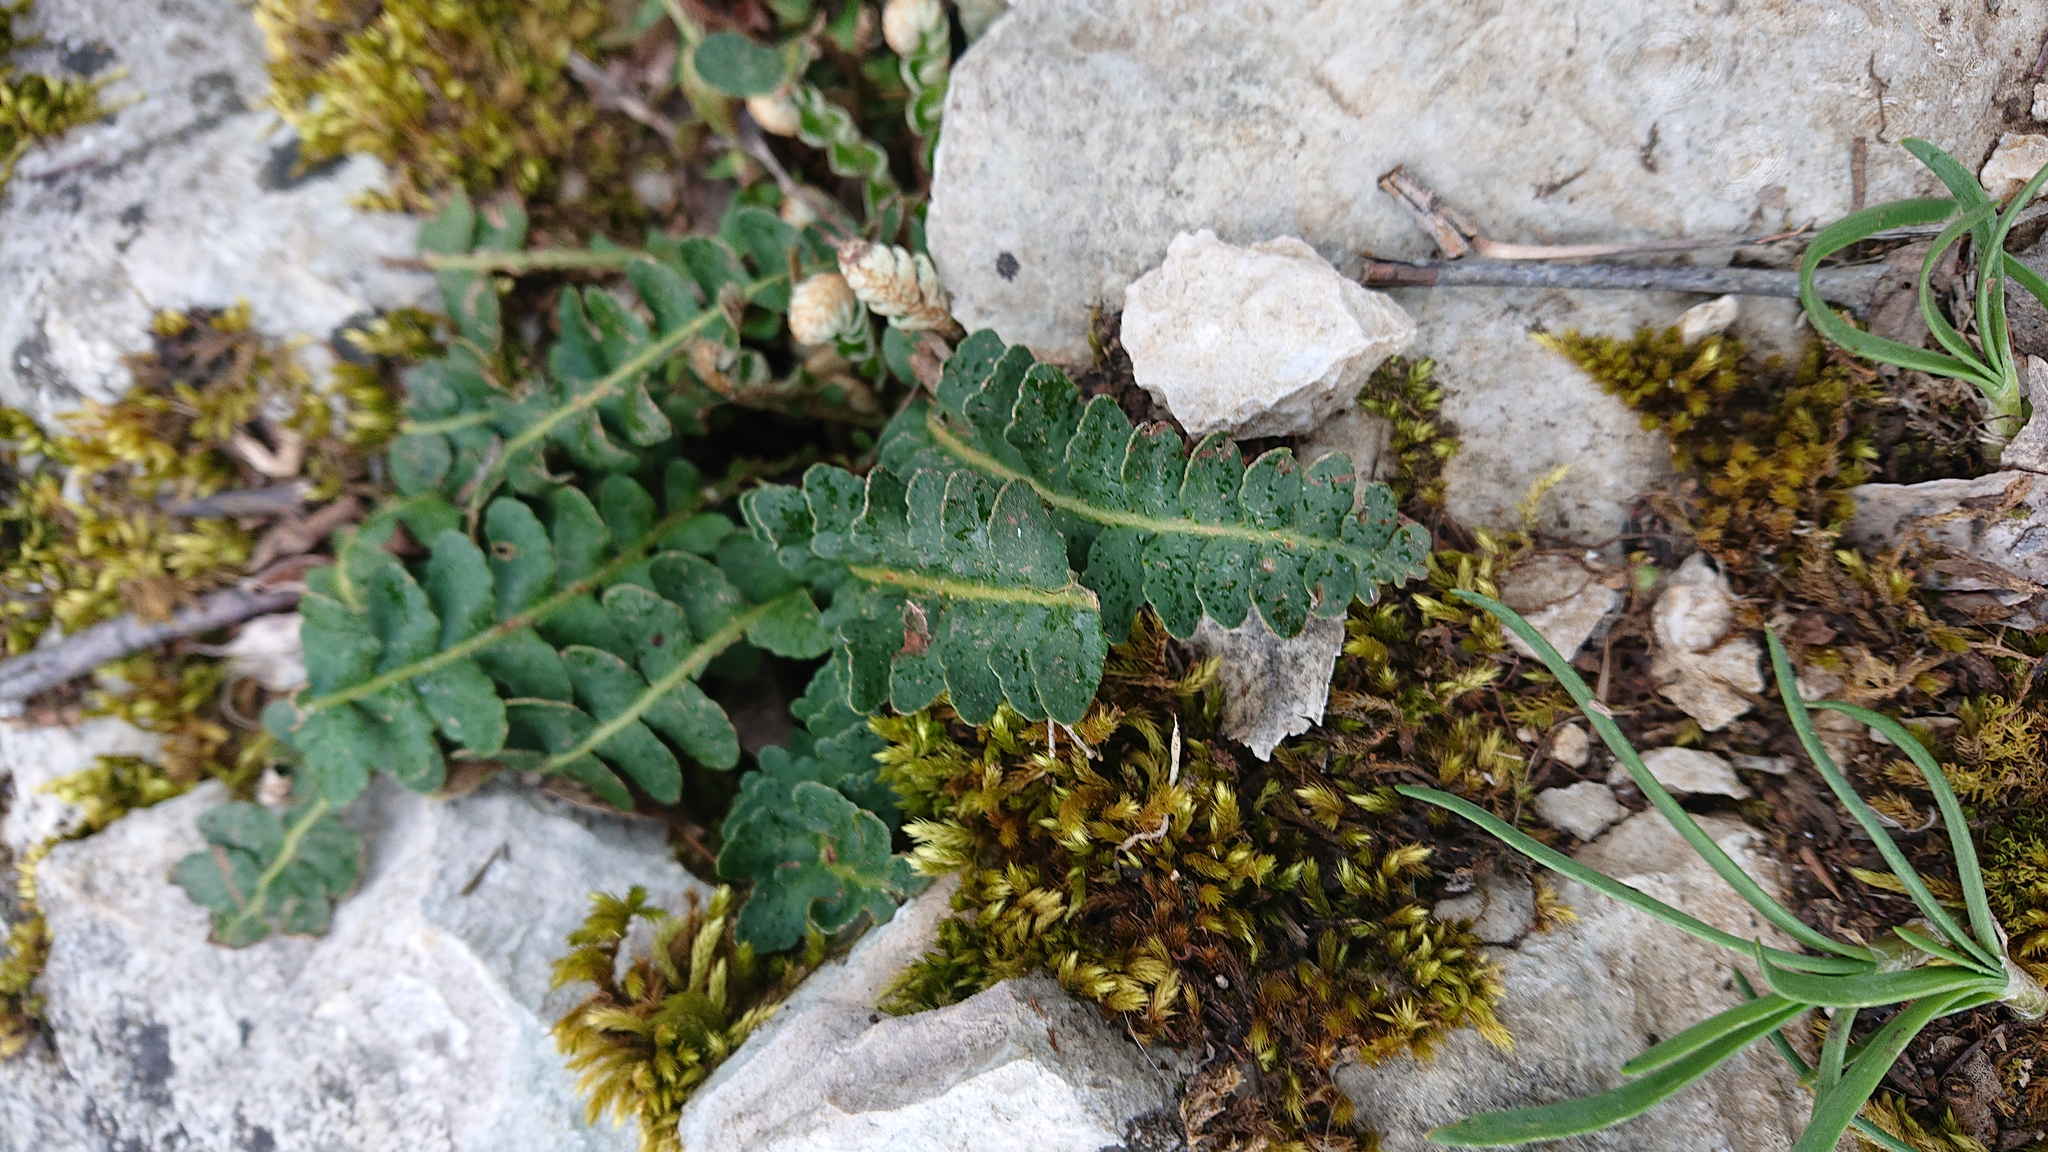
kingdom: Plantae
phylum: Tracheophyta
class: Polypodiopsida
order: Polypodiales
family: Aspleniaceae
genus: Asplenium
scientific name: Asplenium ceterach
